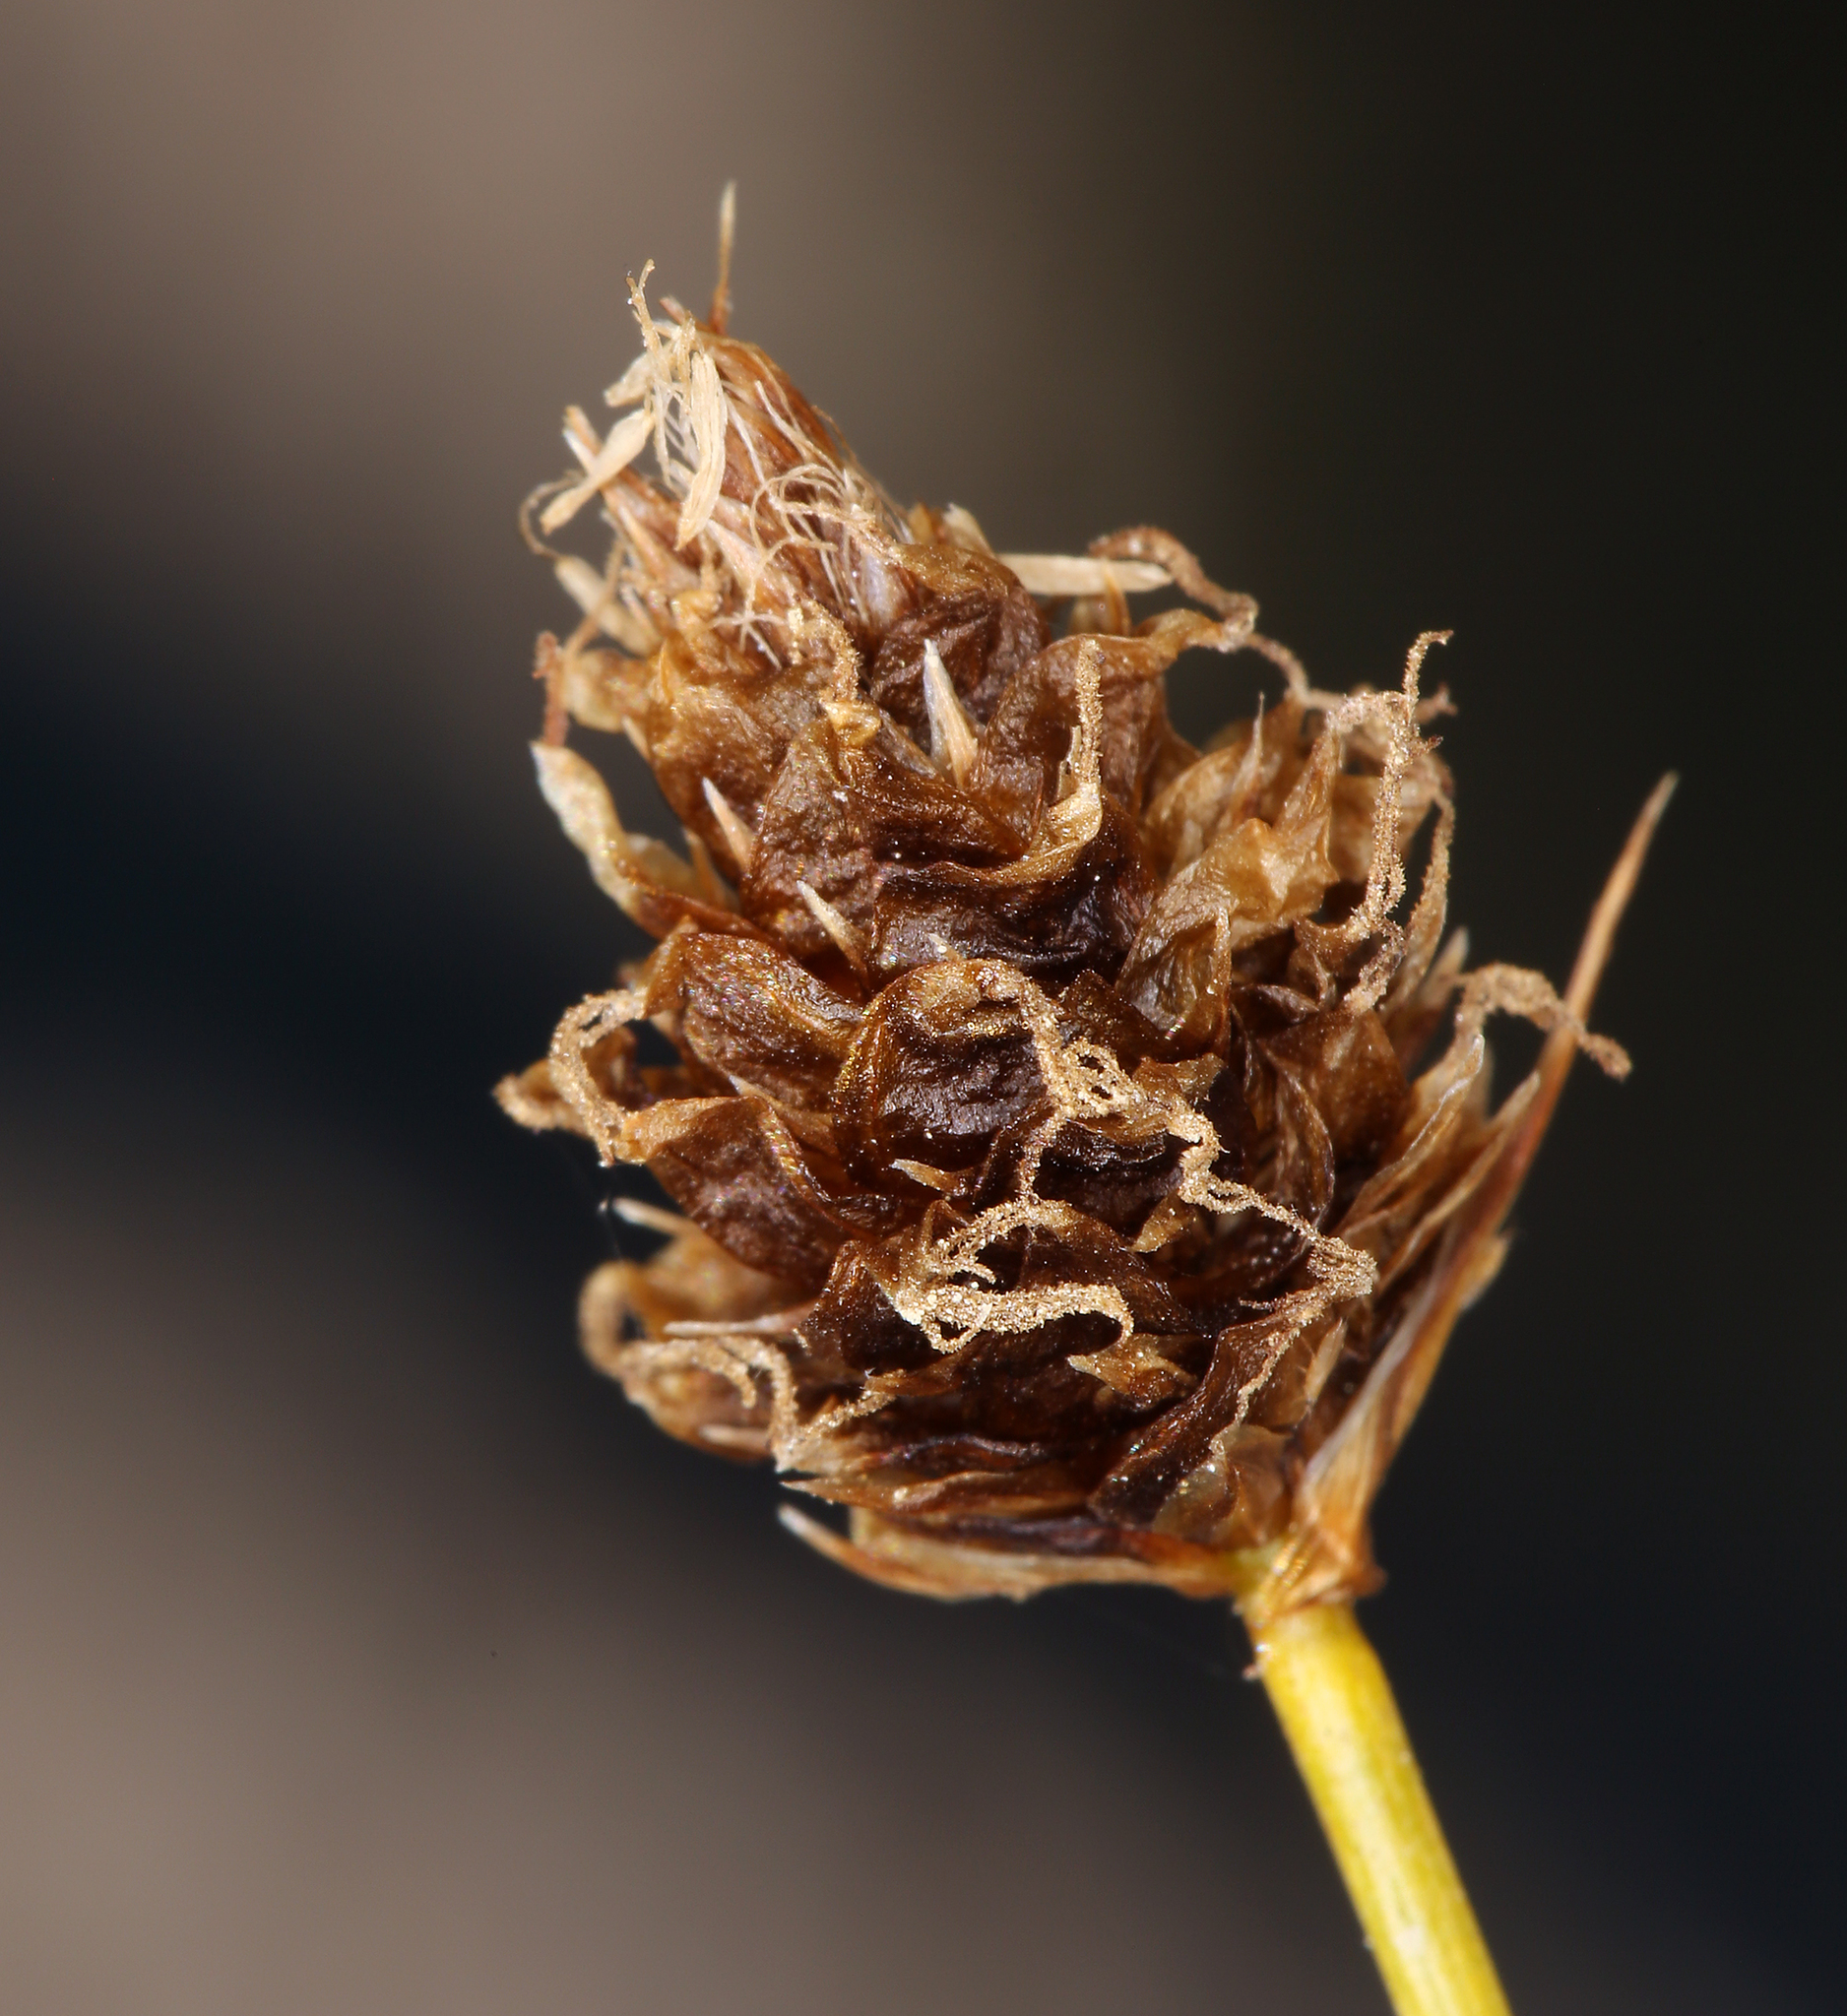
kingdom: Plantae
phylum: Tracheophyta
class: Liliopsida
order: Poales
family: Cyperaceae
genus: Carex
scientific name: Carex breweri
